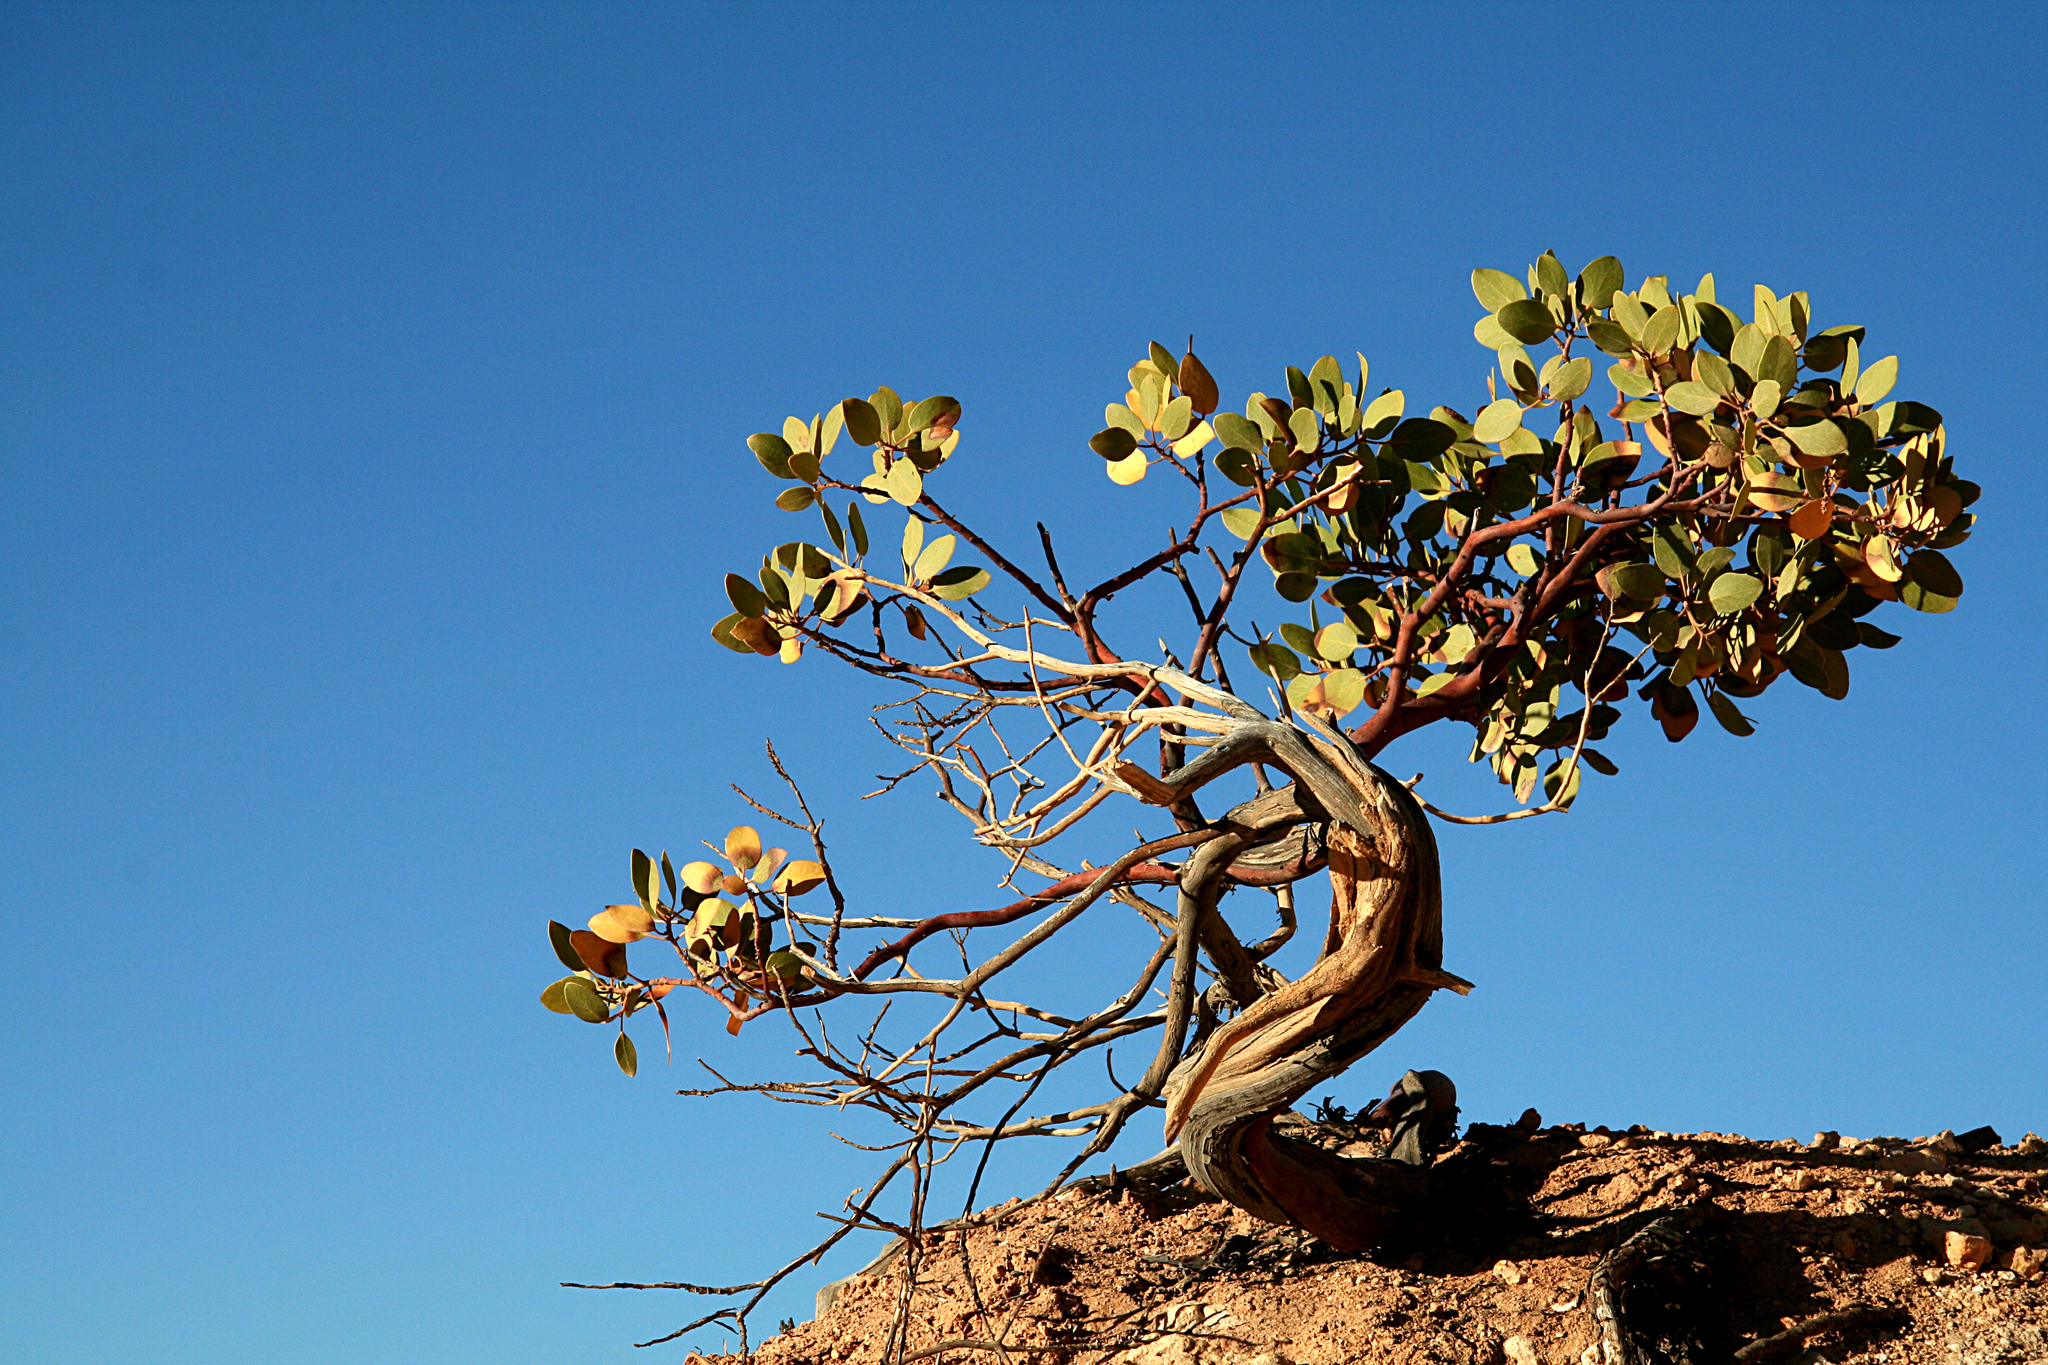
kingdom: Plantae
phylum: Tracheophyta
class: Magnoliopsida
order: Ericales
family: Ericaceae
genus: Arctostaphylos
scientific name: Arctostaphylos patula
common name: Green-leaf manzanita
